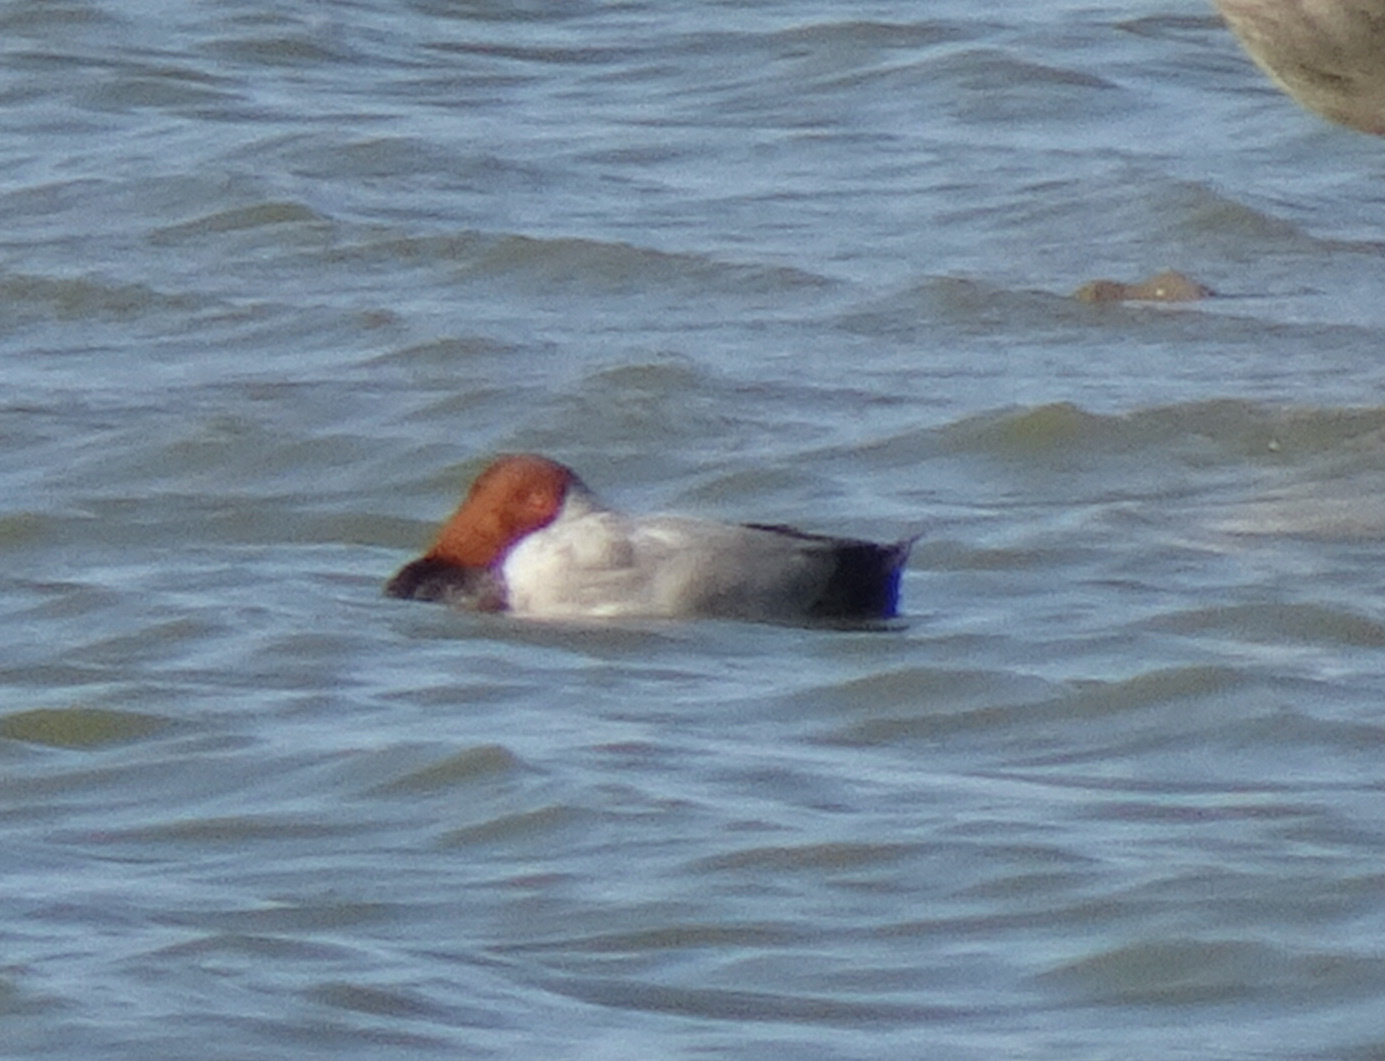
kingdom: Animalia
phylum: Chordata
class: Aves
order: Anseriformes
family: Anatidae
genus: Aythya
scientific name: Aythya ferina
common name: Common pochard
